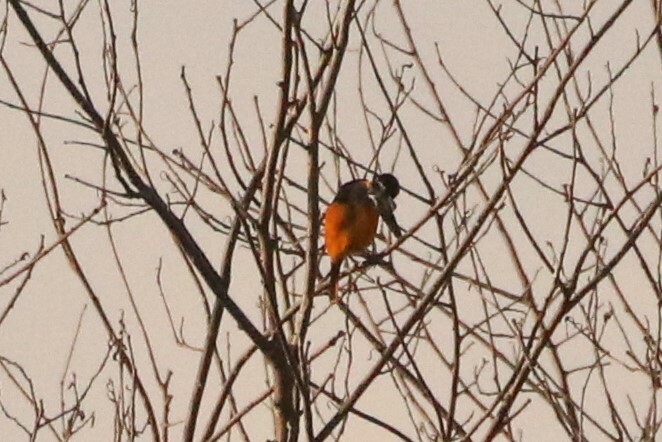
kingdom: Animalia
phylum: Chordata
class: Aves
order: Passeriformes
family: Icteridae
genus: Icterus
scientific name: Icterus galbula
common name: Baltimore oriole
